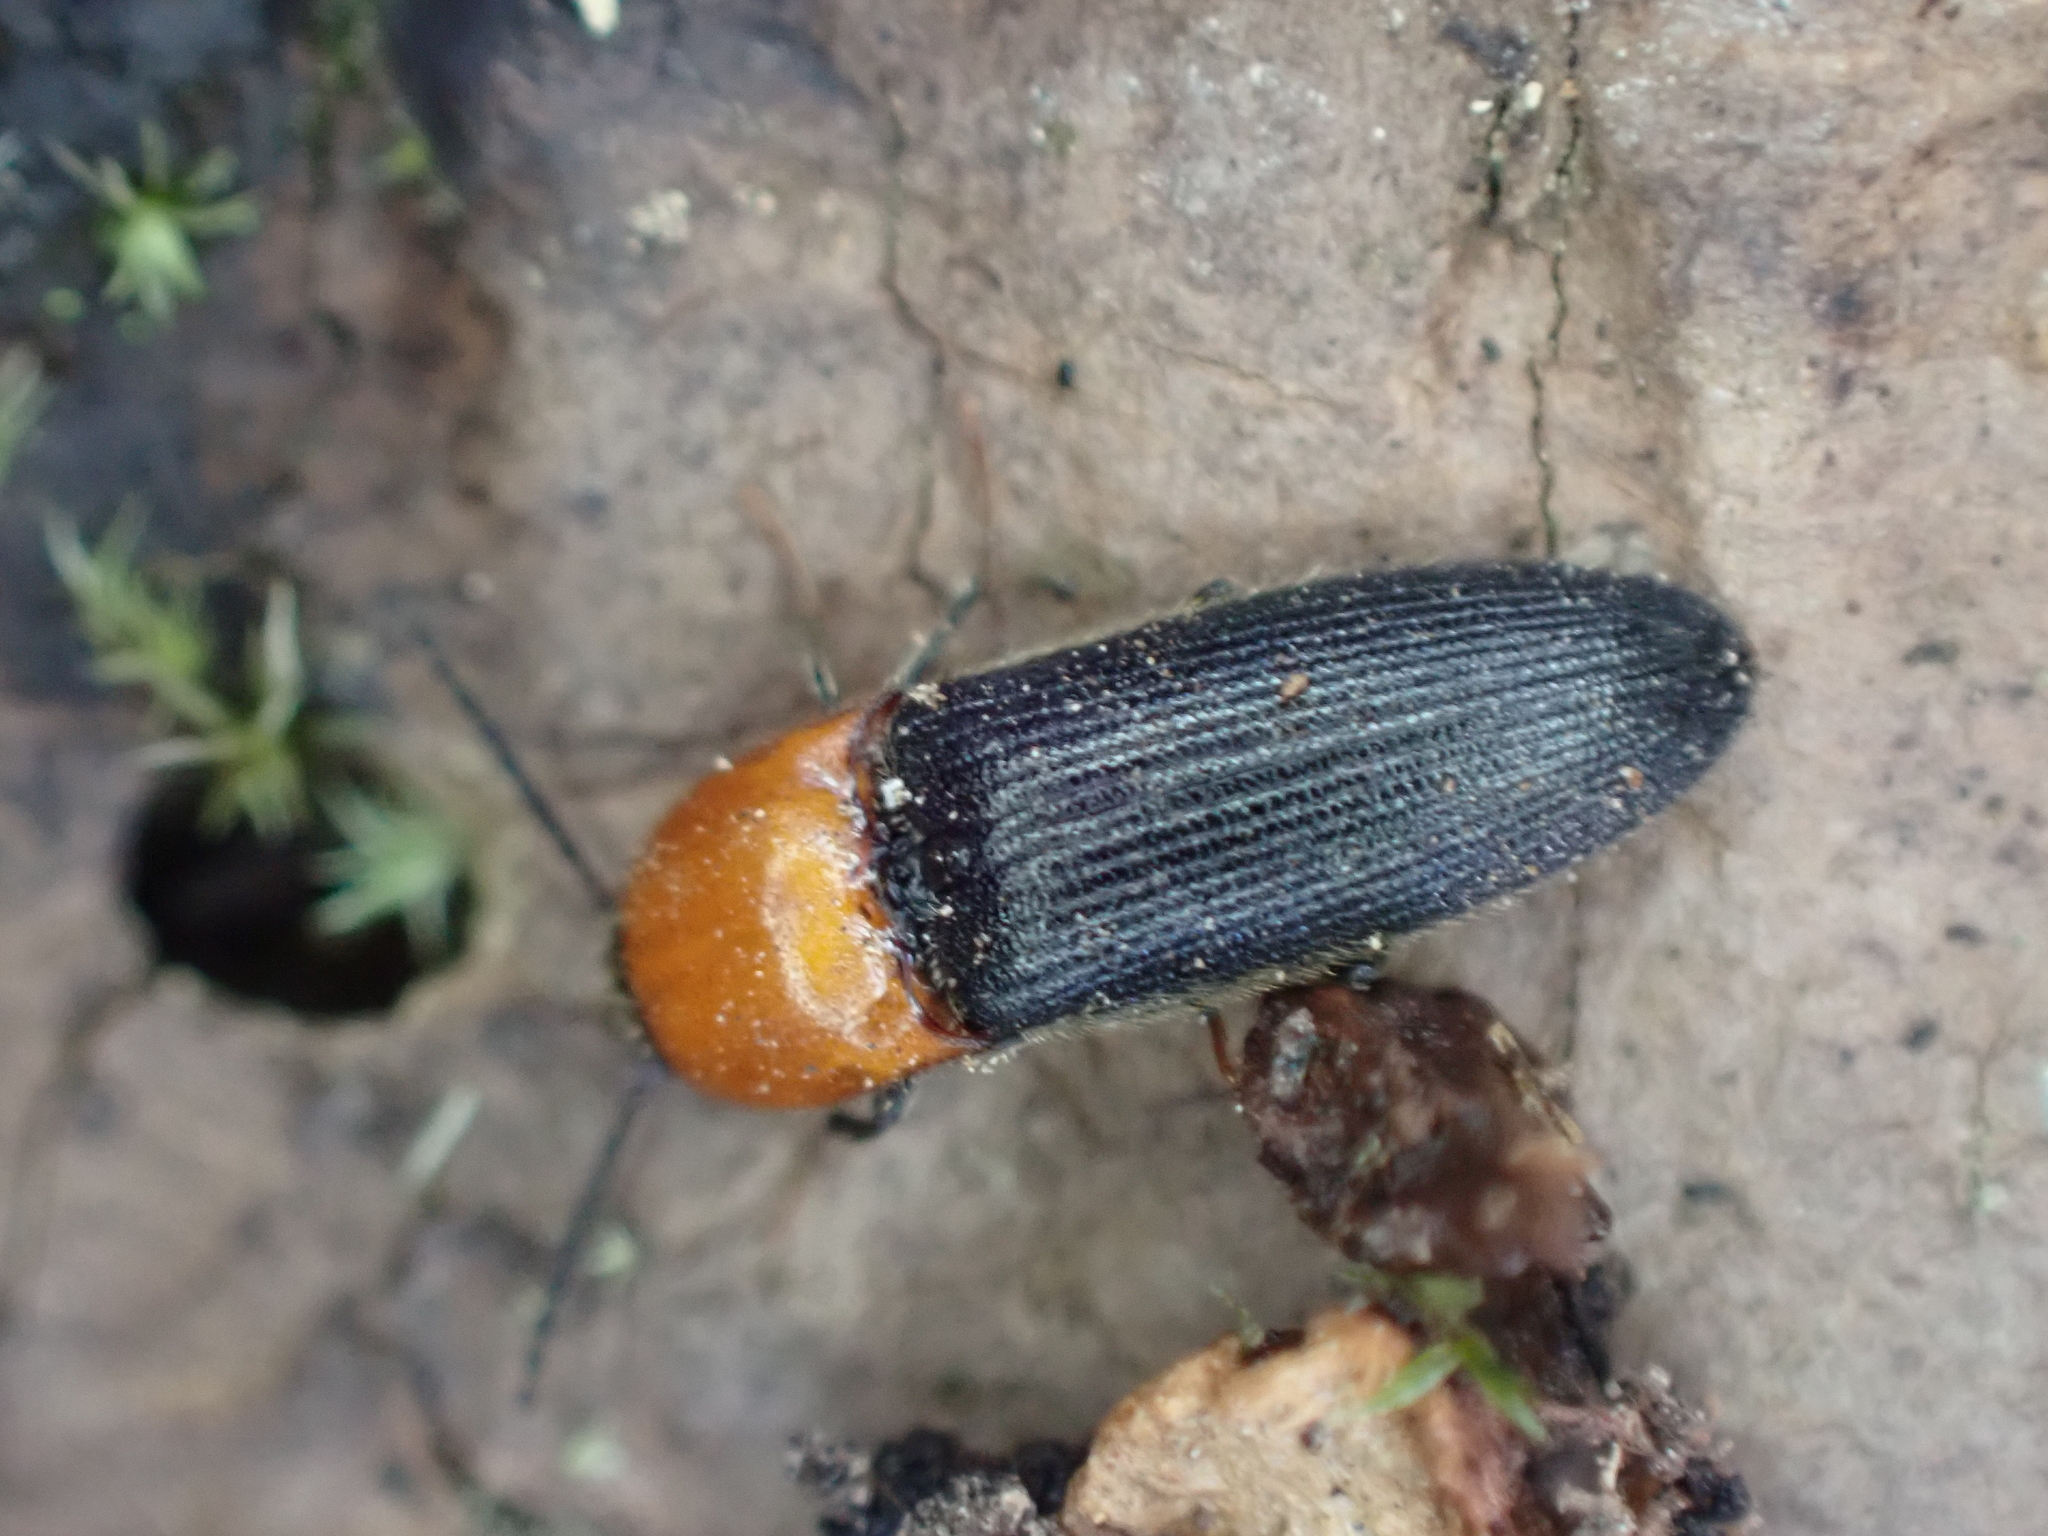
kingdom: Animalia
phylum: Arthropoda
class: Insecta
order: Coleoptera
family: Elateridae
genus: Ampedus
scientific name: Ampedus collaris
